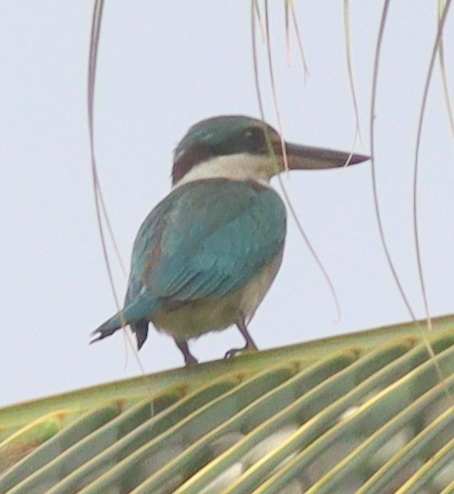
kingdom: Animalia
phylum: Chordata
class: Aves
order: Coraciiformes
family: Alcedinidae
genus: Todiramphus
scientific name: Todiramphus chloris
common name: Collared kingfisher
